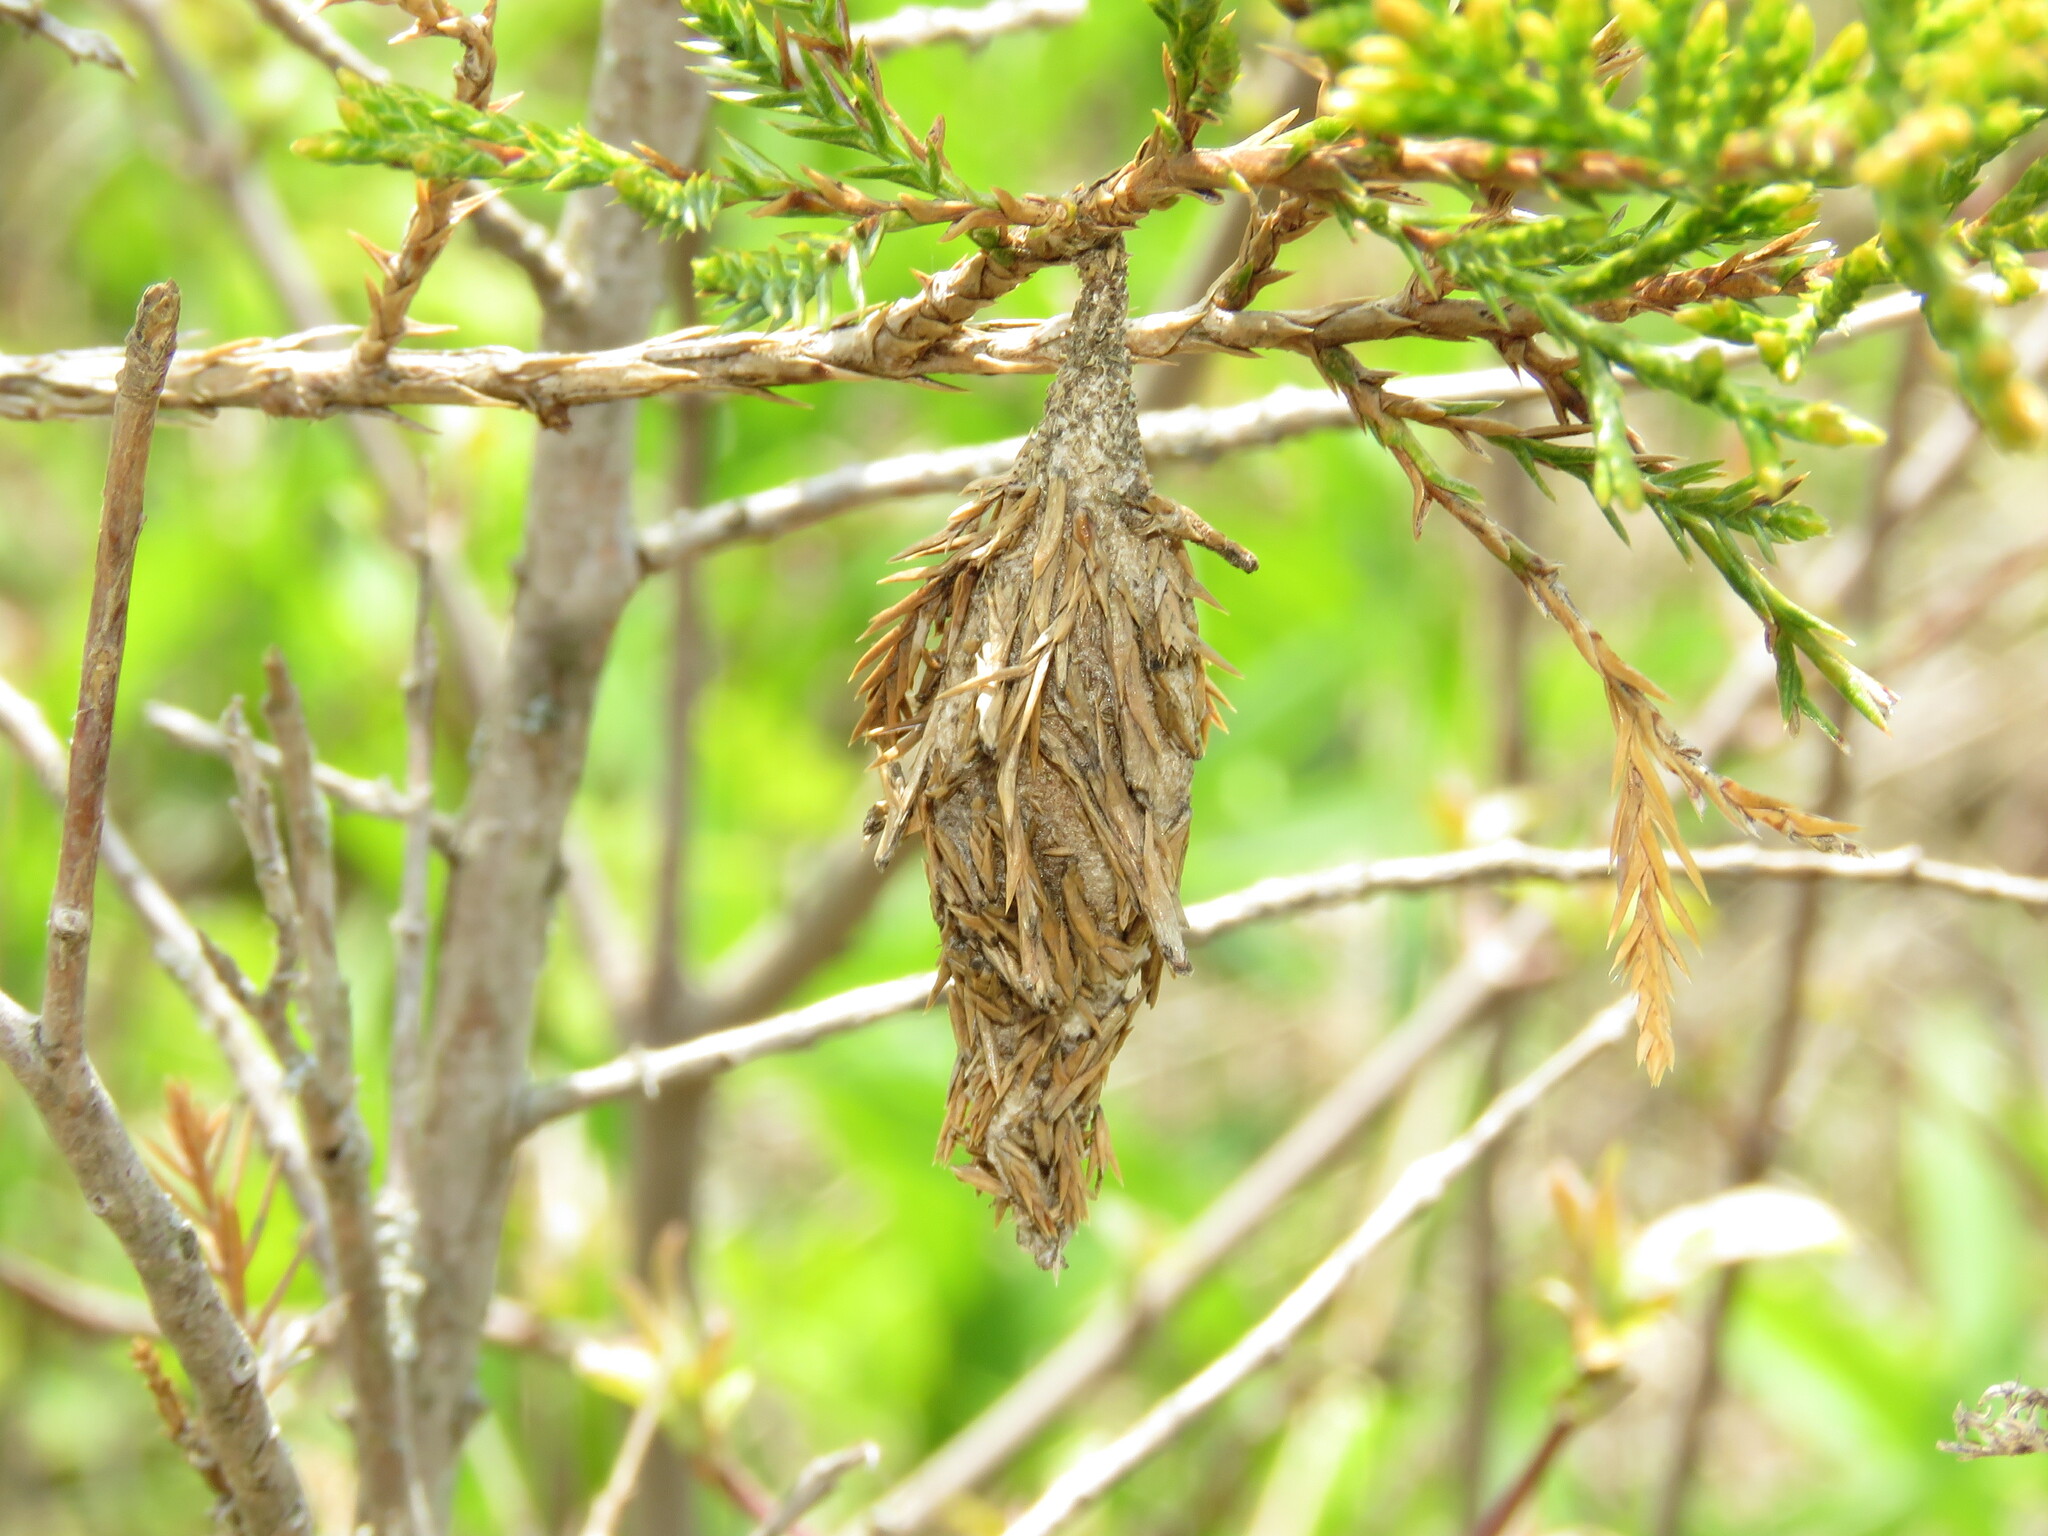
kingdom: Animalia
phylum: Arthropoda
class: Insecta
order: Lepidoptera
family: Psychidae
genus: Thyridopteryx
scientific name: Thyridopteryx ephemeraeformis
